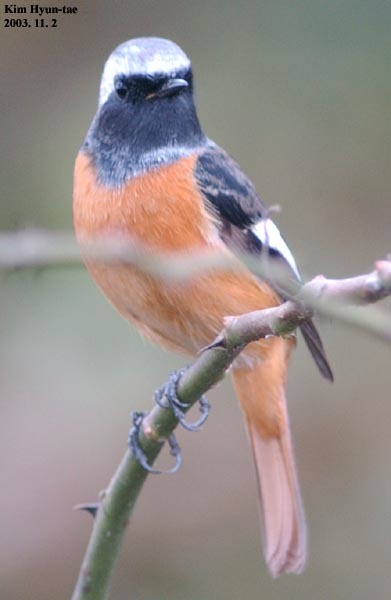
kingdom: Animalia
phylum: Chordata
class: Aves
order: Passeriformes
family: Muscicapidae
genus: Phoenicurus
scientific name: Phoenicurus auroreus
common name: Daurian redstart
